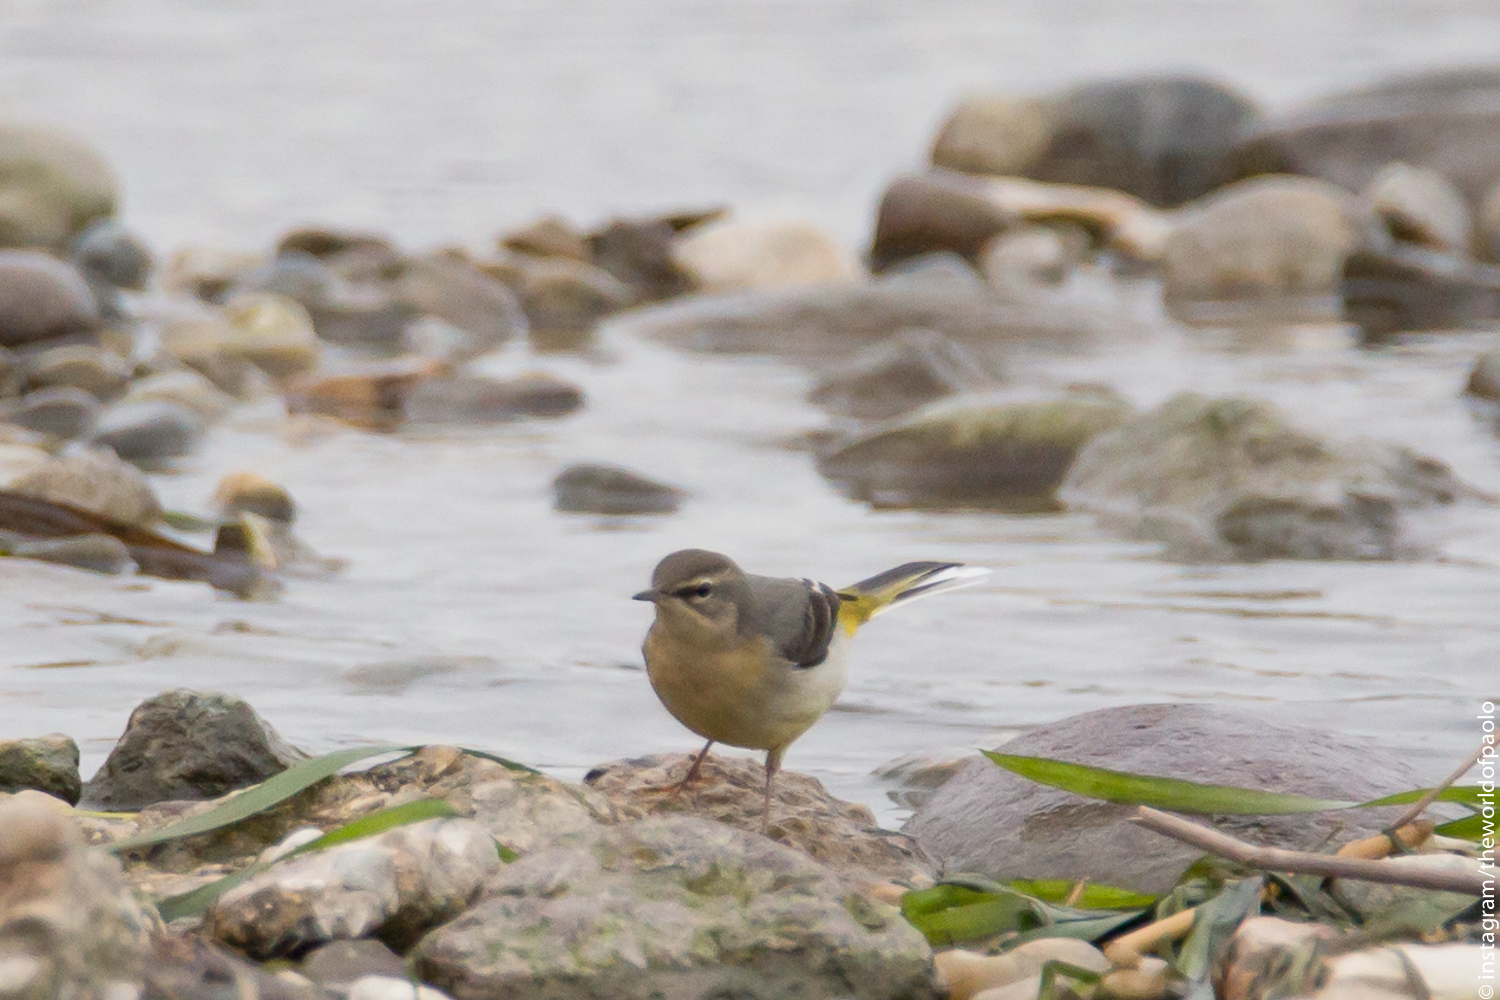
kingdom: Animalia
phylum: Chordata
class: Aves
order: Passeriformes
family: Motacillidae
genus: Motacilla
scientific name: Motacilla cinerea
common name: Grey wagtail
